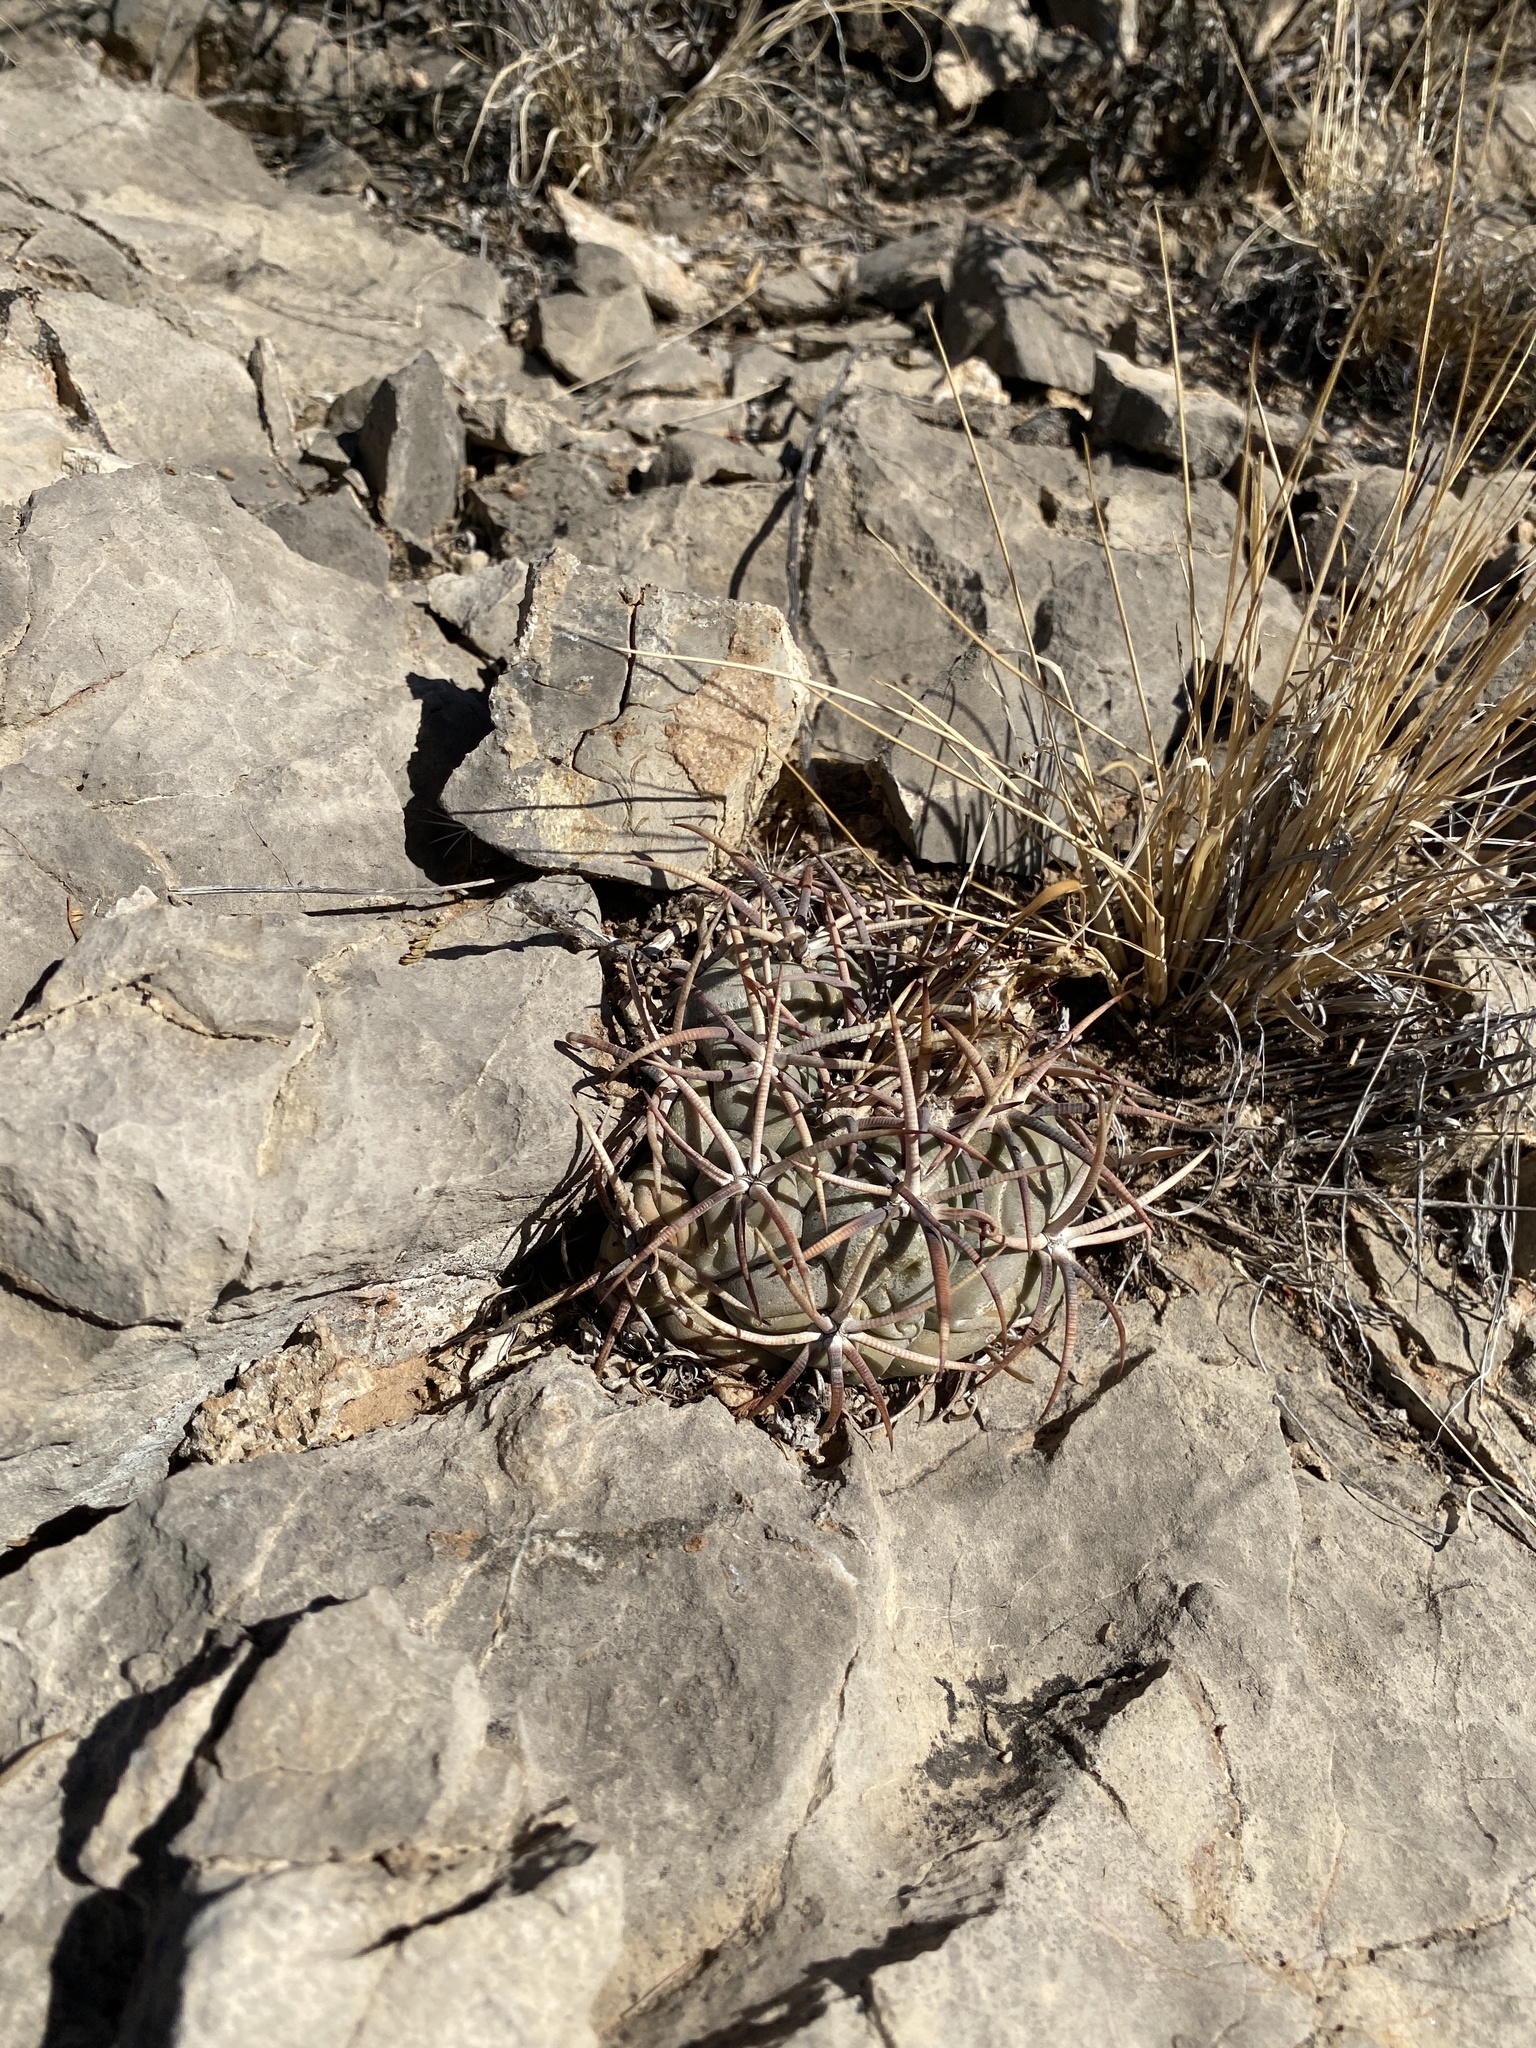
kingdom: Plantae
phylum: Tracheophyta
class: Magnoliopsida
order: Caryophyllales
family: Cactaceae
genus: Echinocactus
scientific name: Echinocactus horizonthalonius
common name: Devilshead
